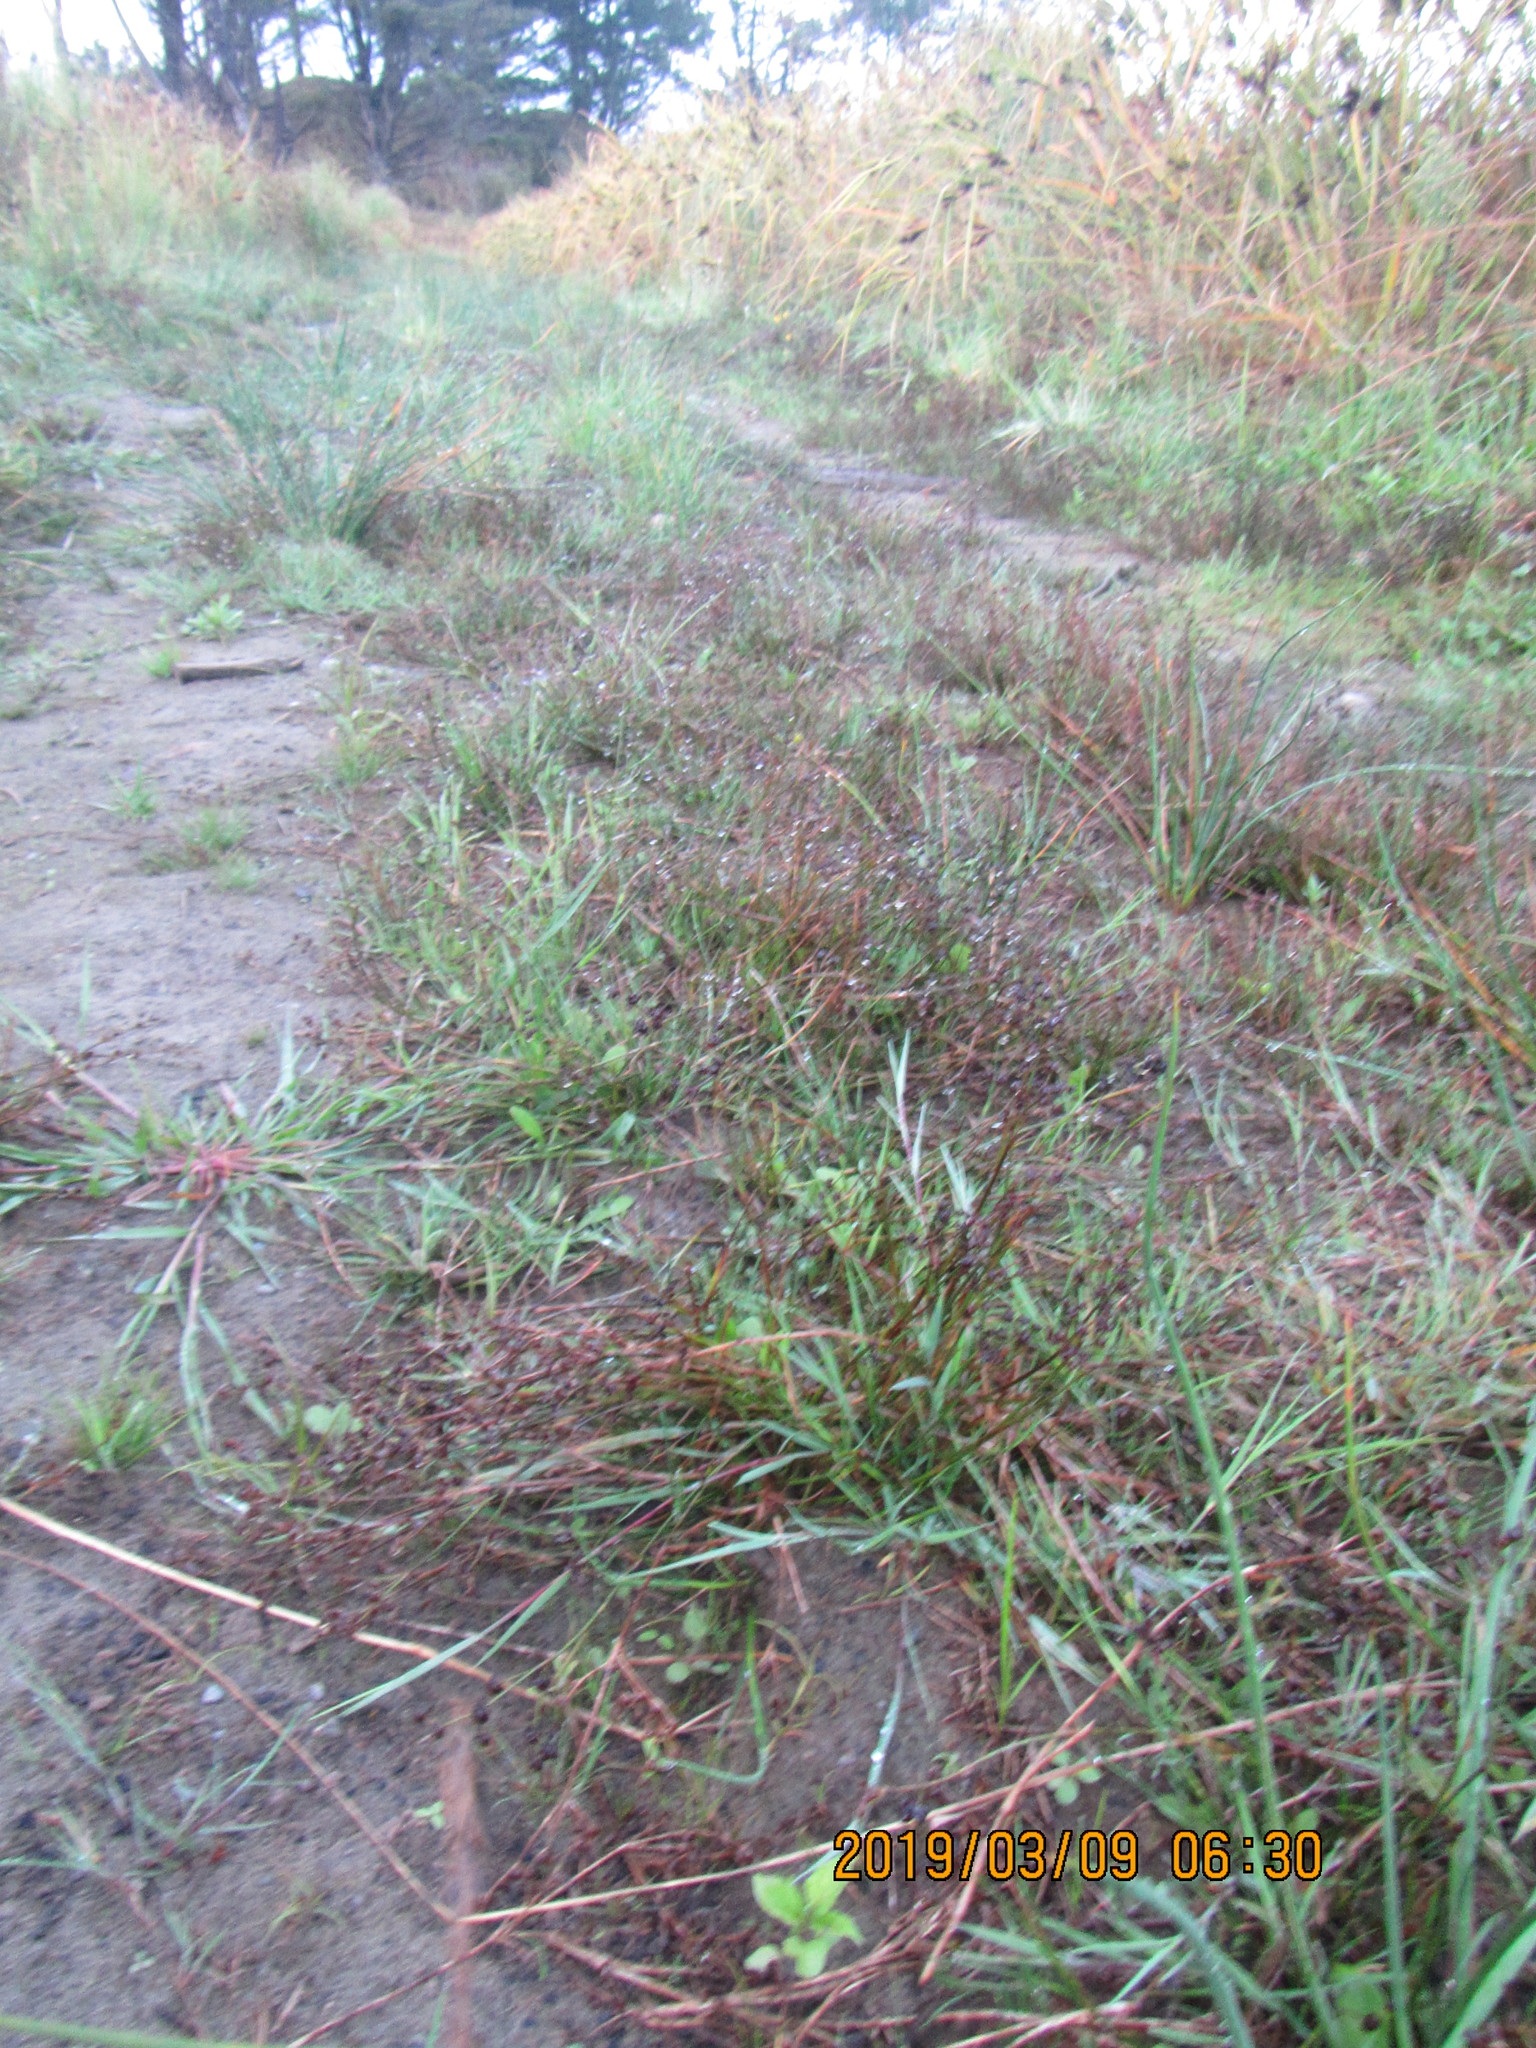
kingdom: Plantae
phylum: Tracheophyta
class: Liliopsida
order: Poales
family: Juncaceae
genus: Juncus
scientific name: Juncus articulatus
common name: Jointed rush
